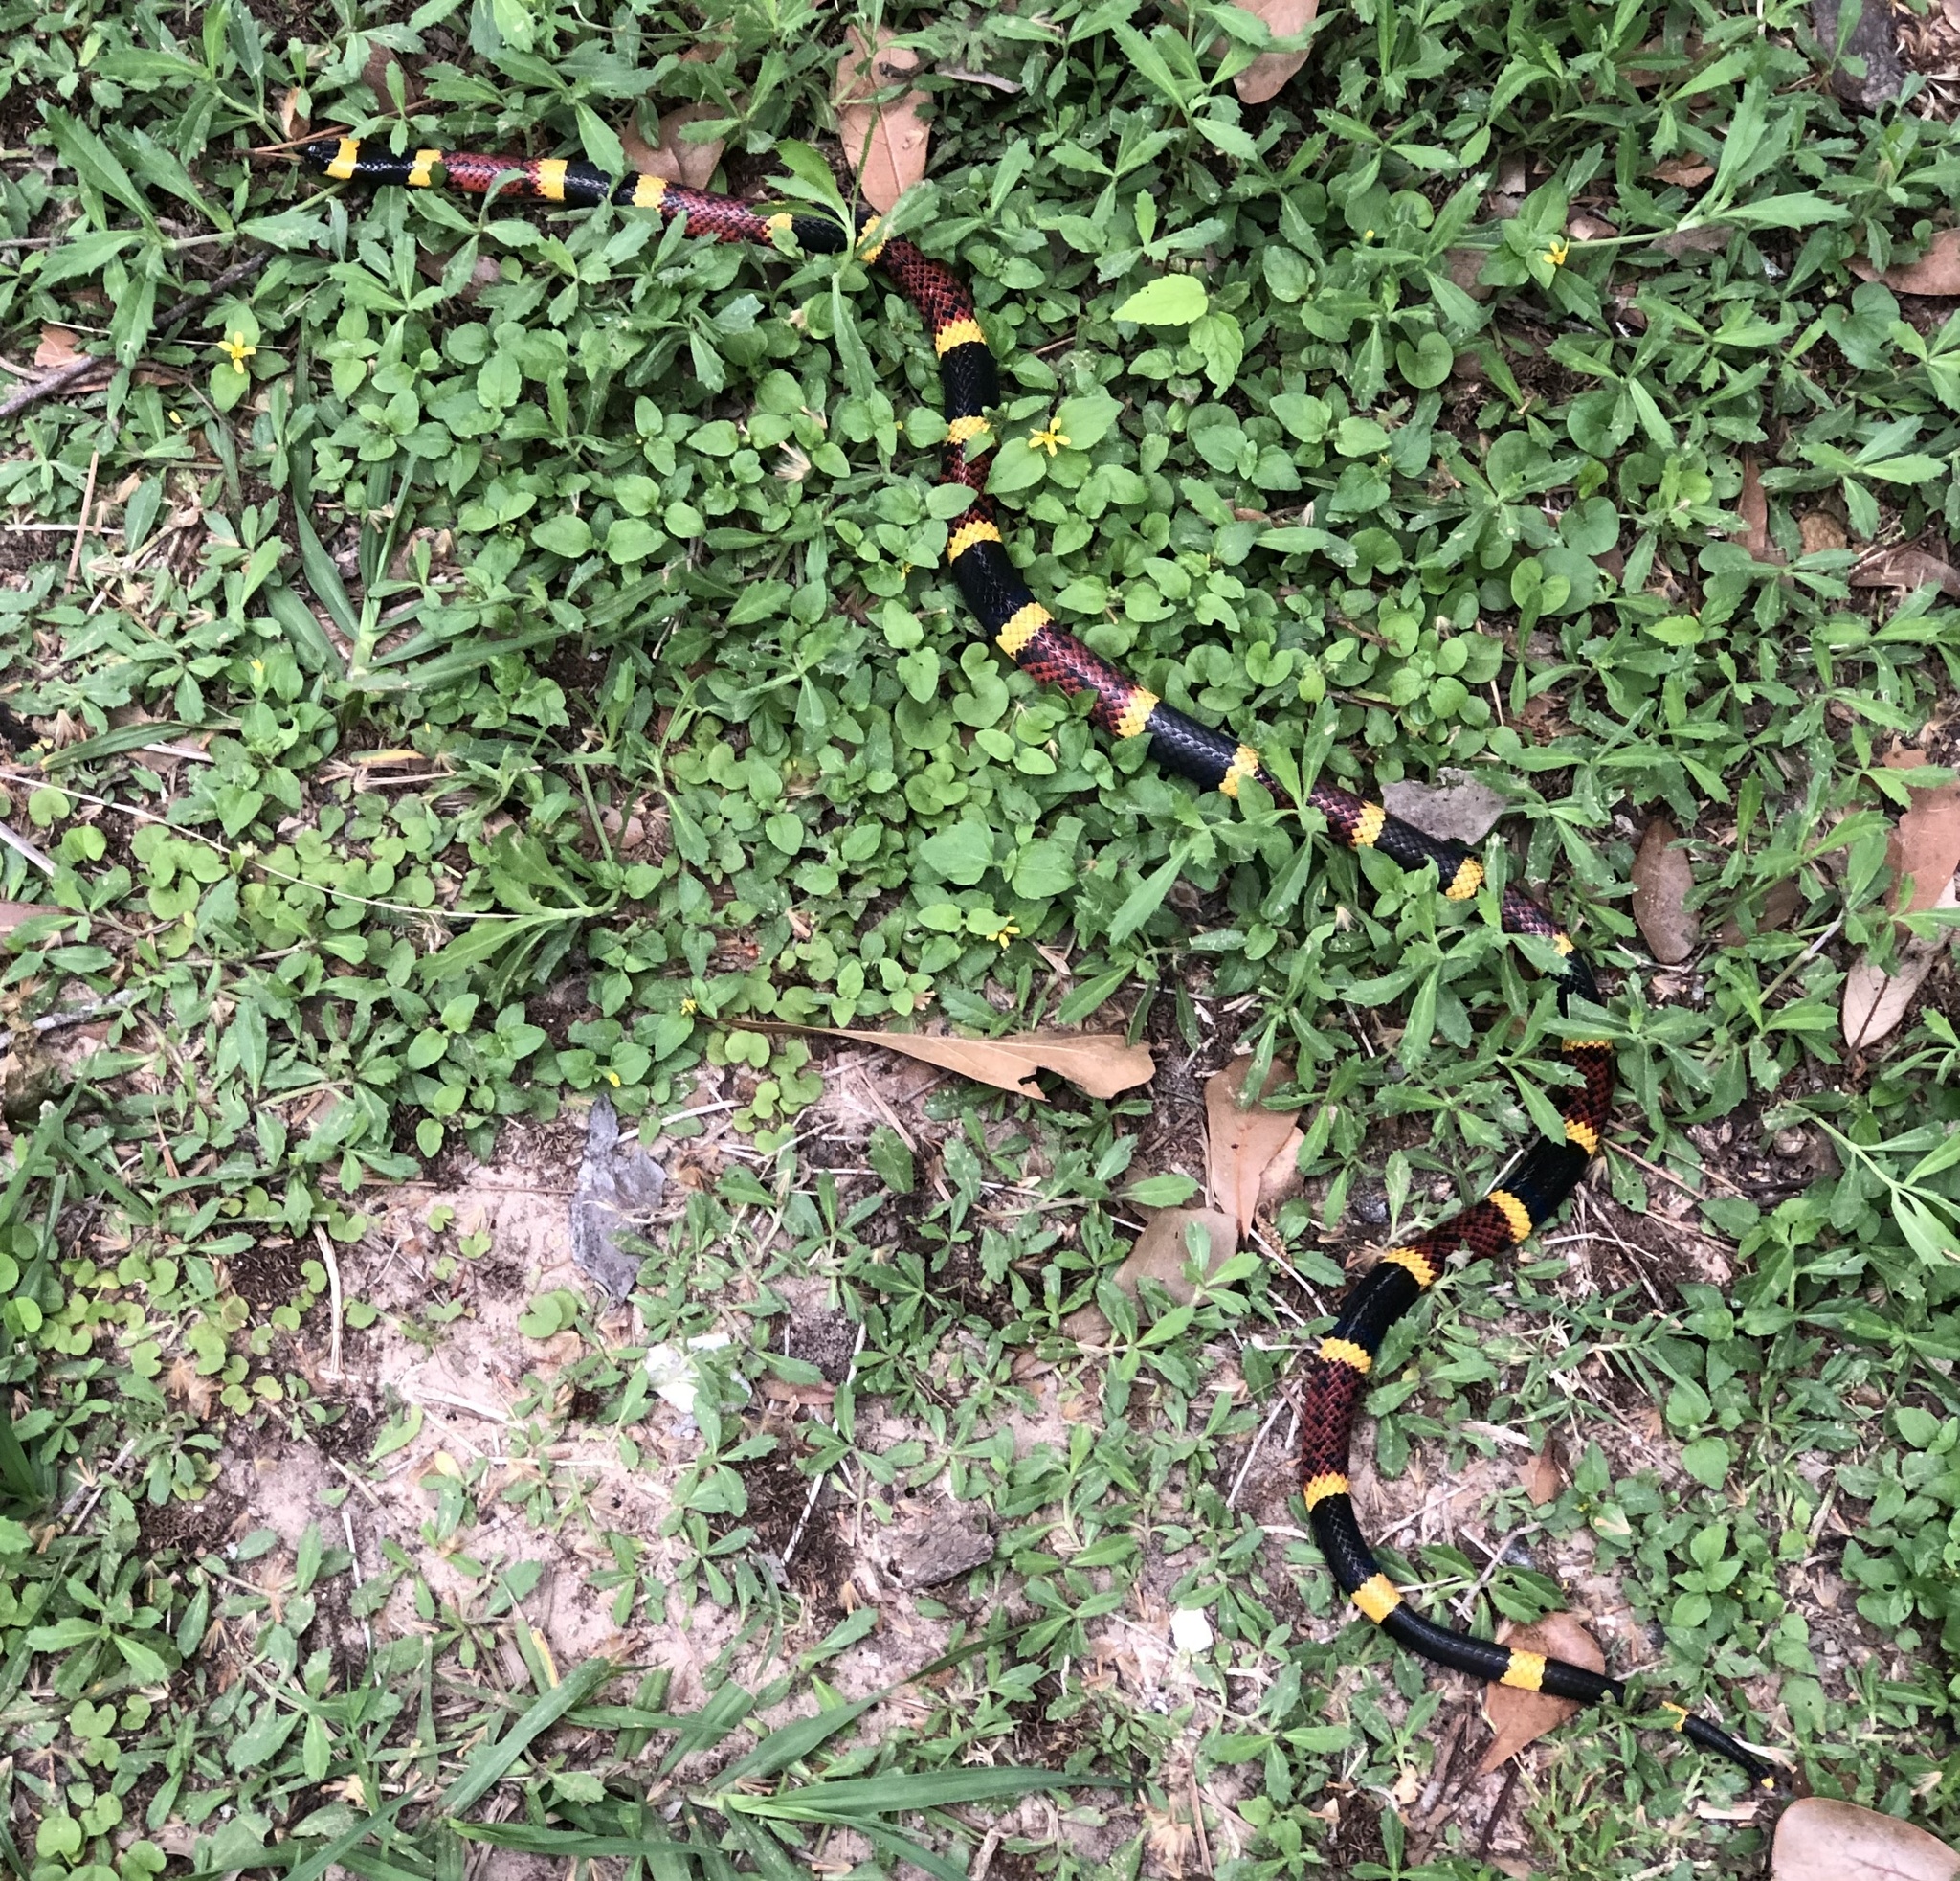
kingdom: Animalia
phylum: Chordata
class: Squamata
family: Elapidae
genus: Micrurus
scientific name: Micrurus tener
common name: Texas coral snake
